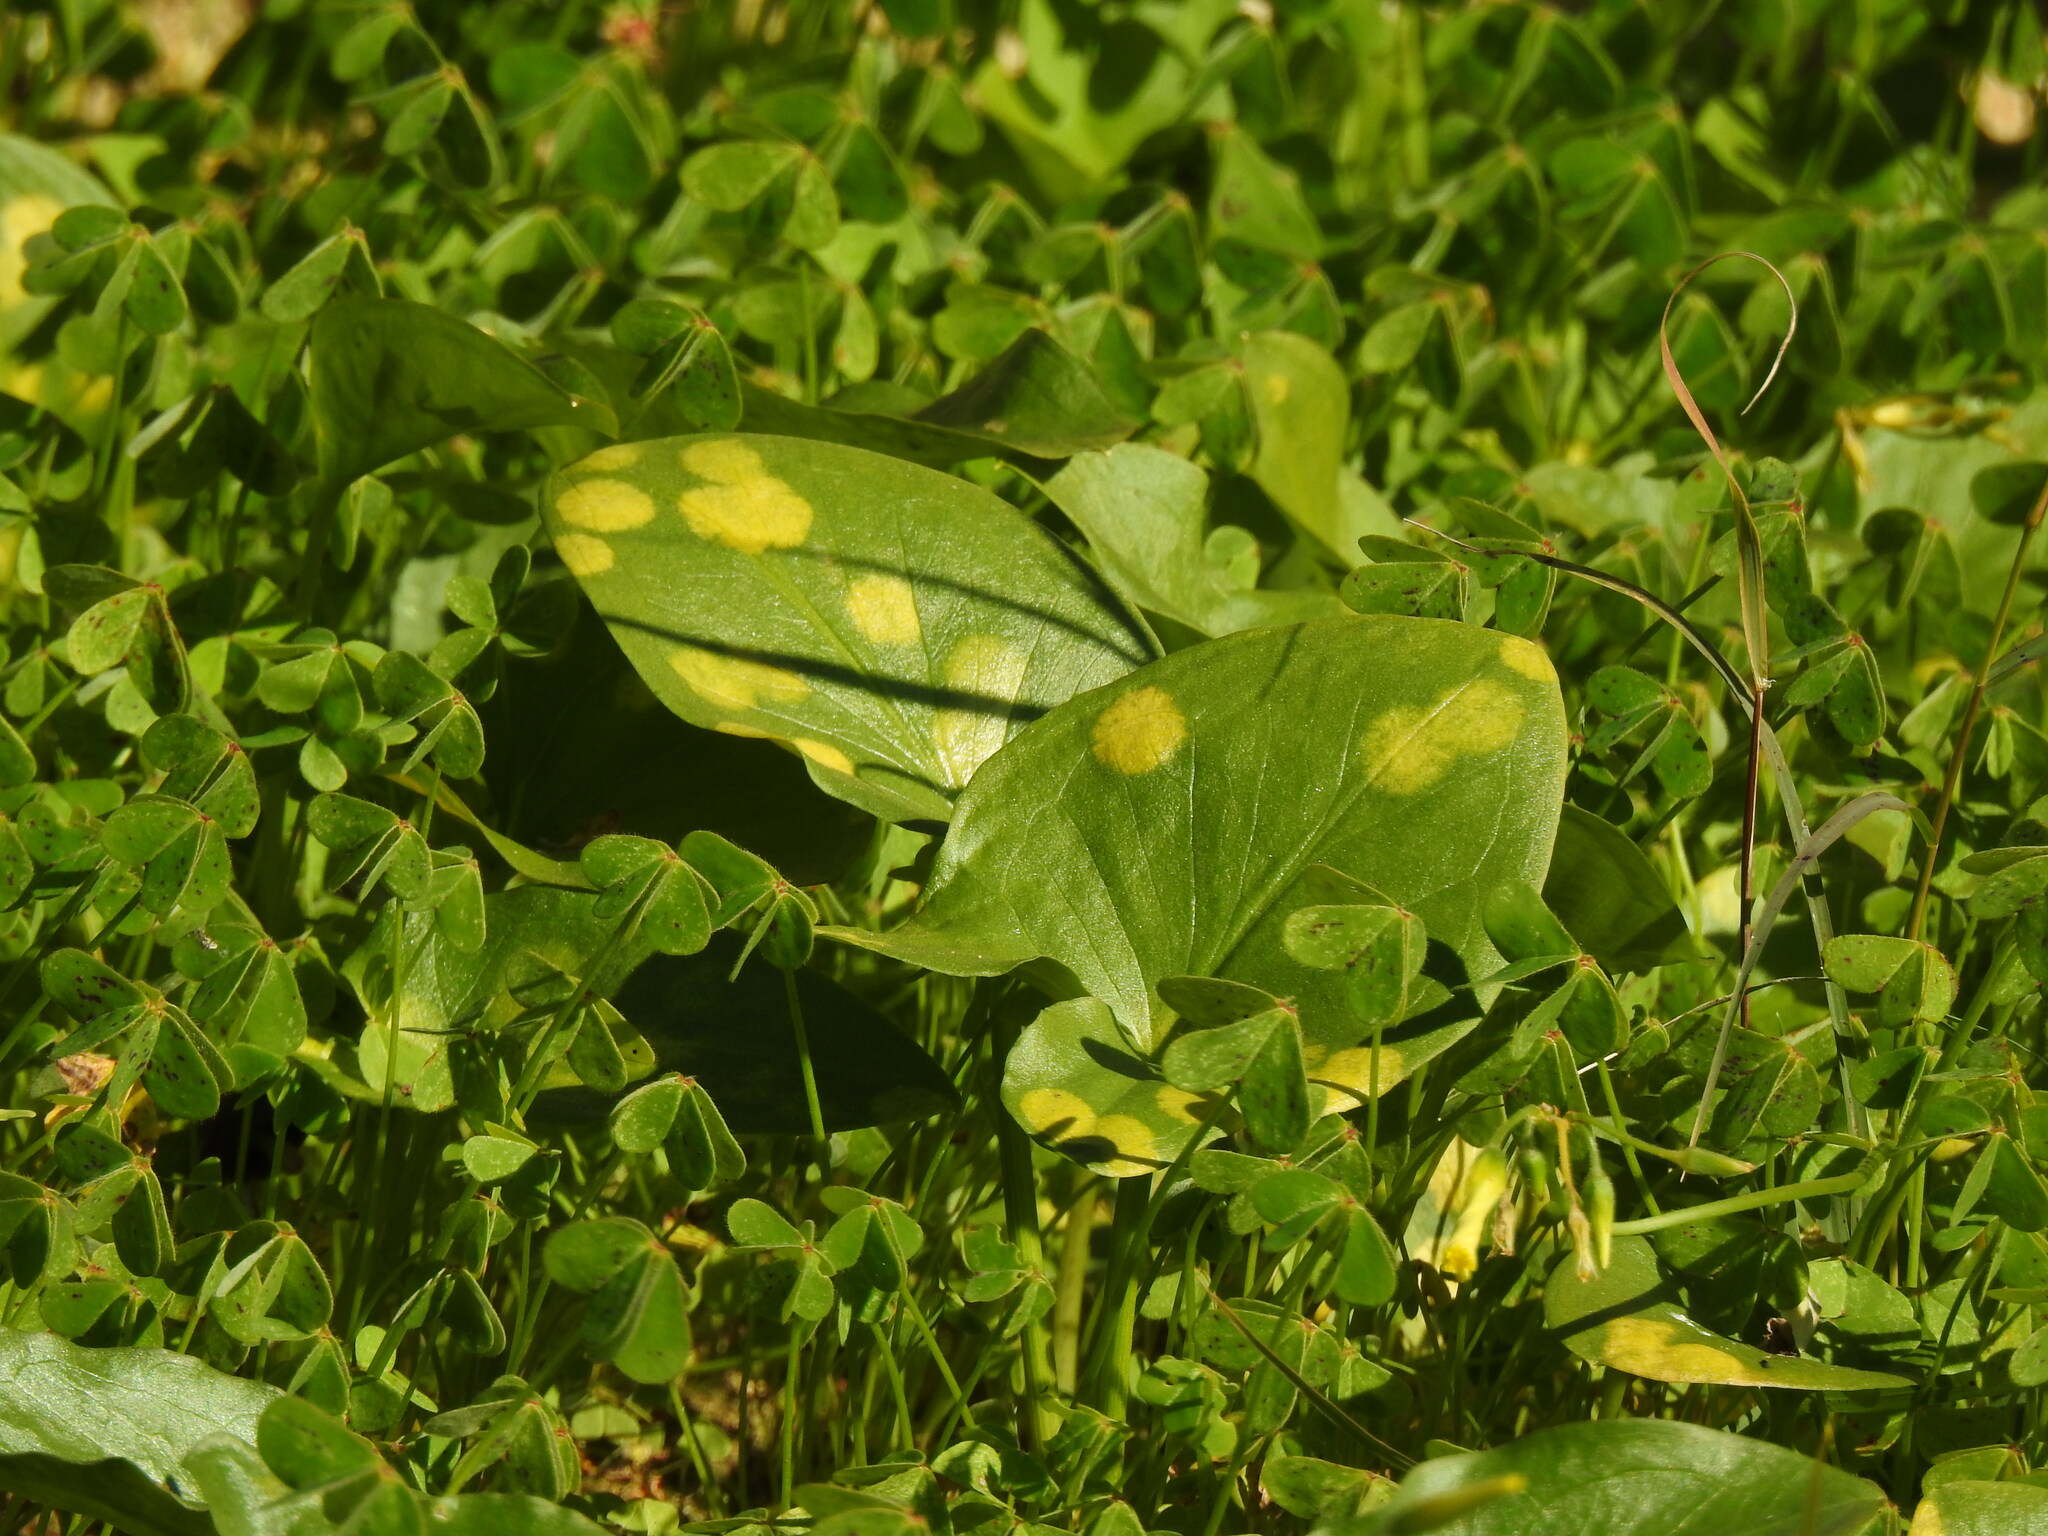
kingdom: Chromista
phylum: Ochrophyta
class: Xanthophyceae
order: Phyllosiphonales
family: Phyllosiphonaceae
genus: Phyllosiphon
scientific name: Phyllosiphon arisari
